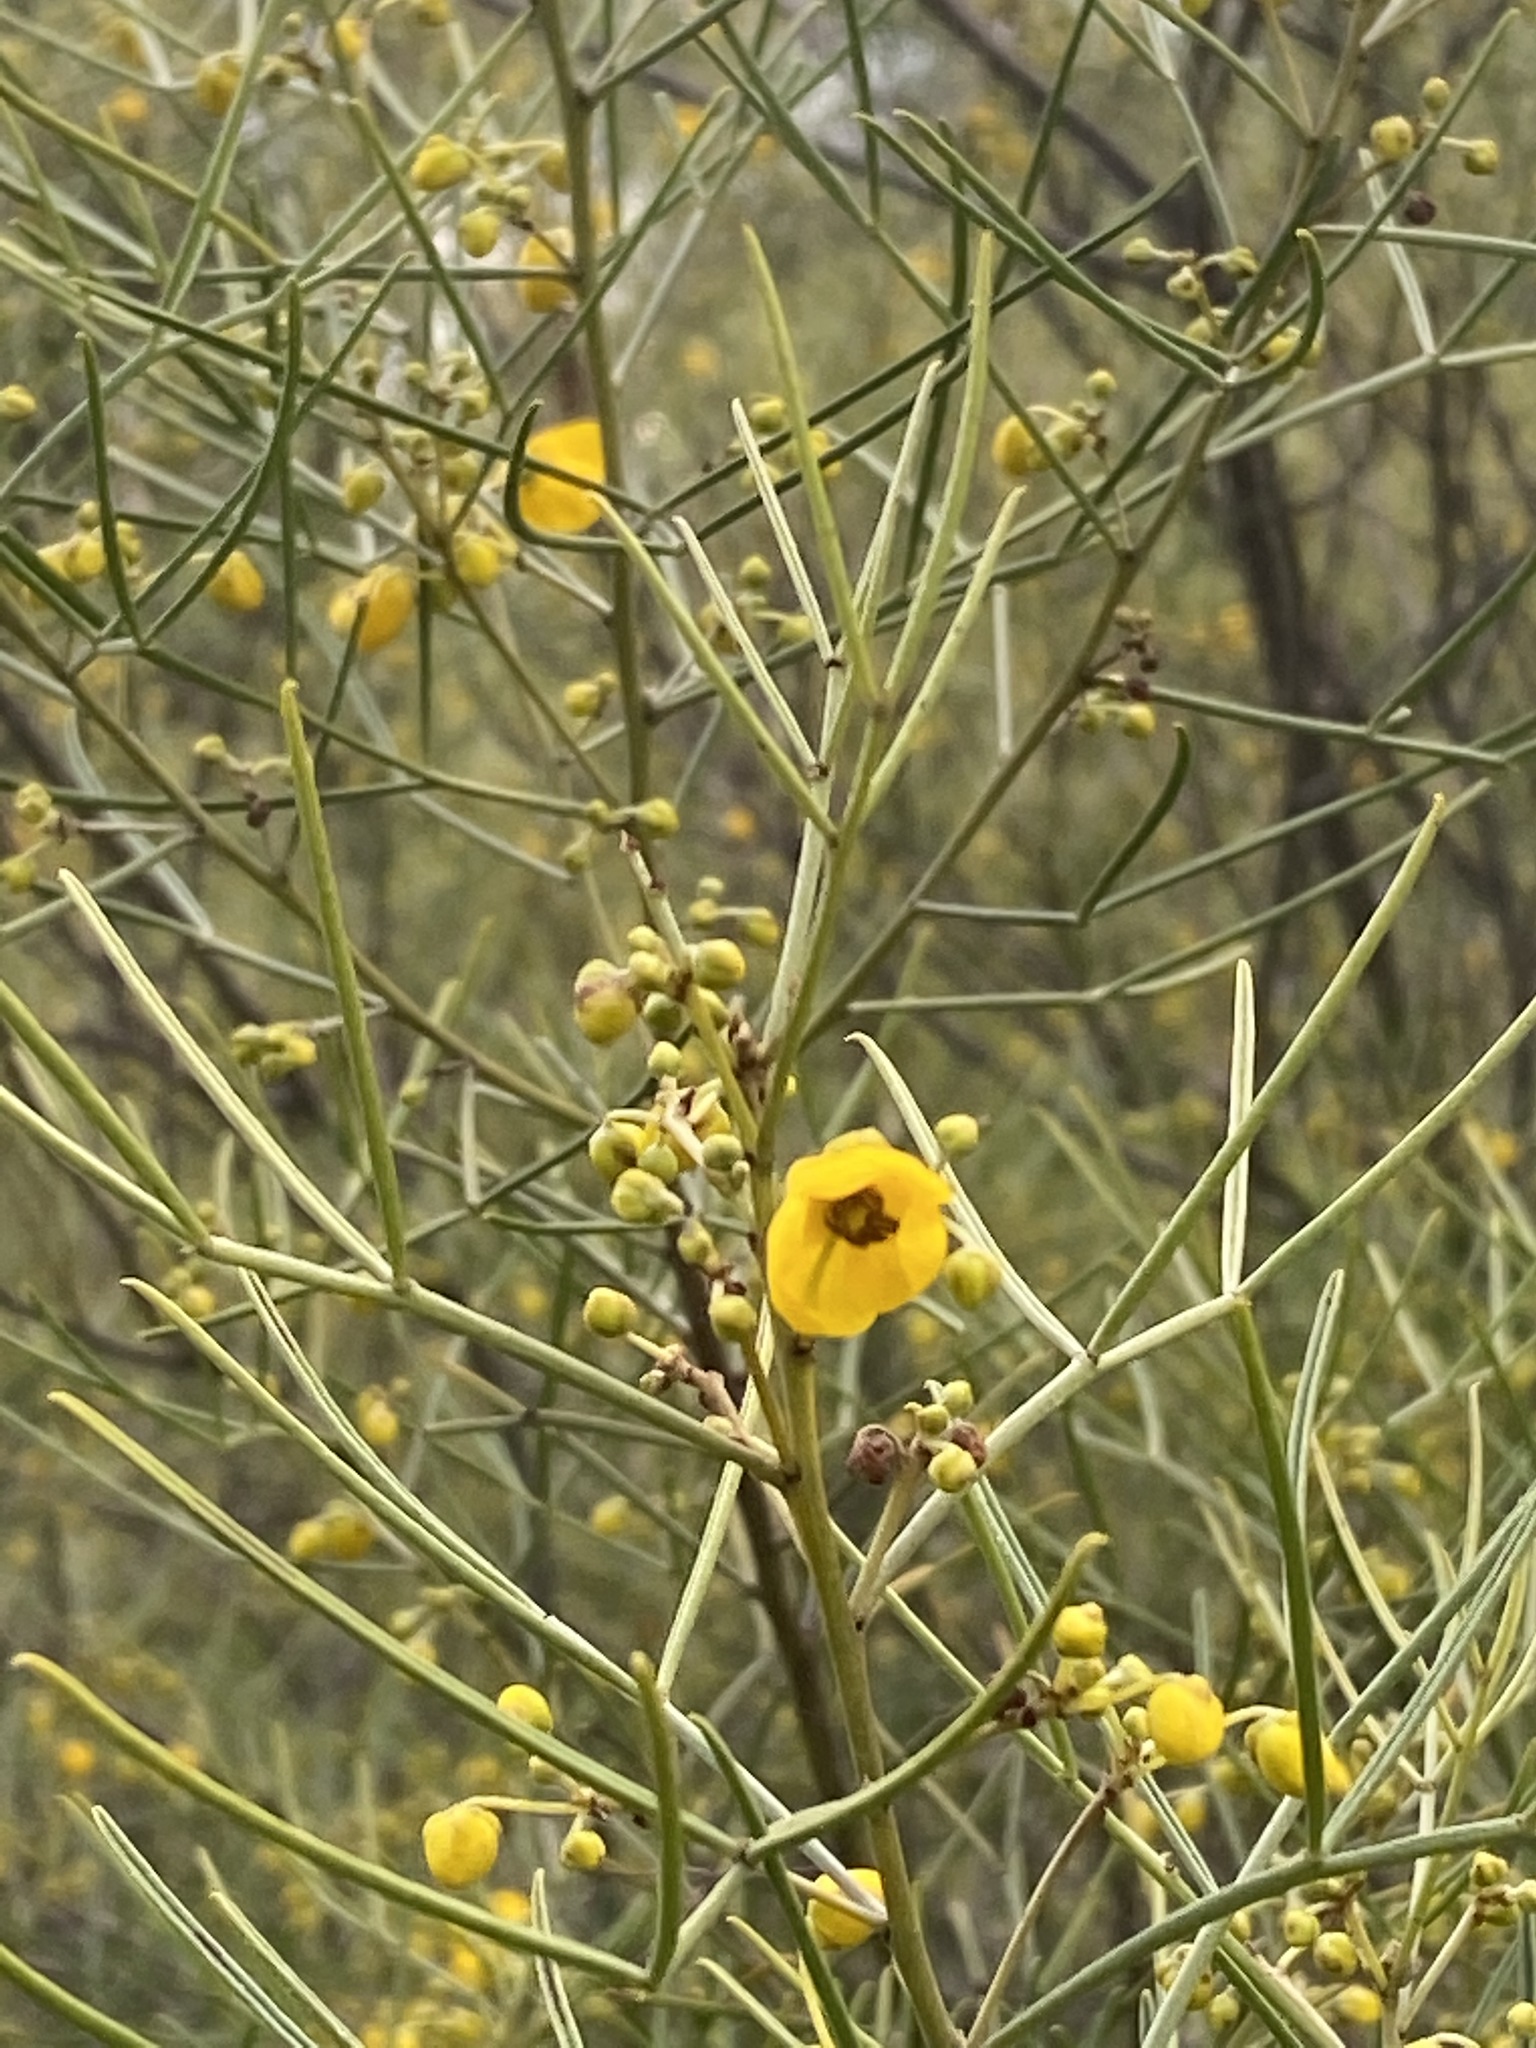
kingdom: Plantae
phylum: Tracheophyta
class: Magnoliopsida
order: Fabales
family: Fabaceae
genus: Senna
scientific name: Senna artemisioides
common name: Burnt-leaved acacia
